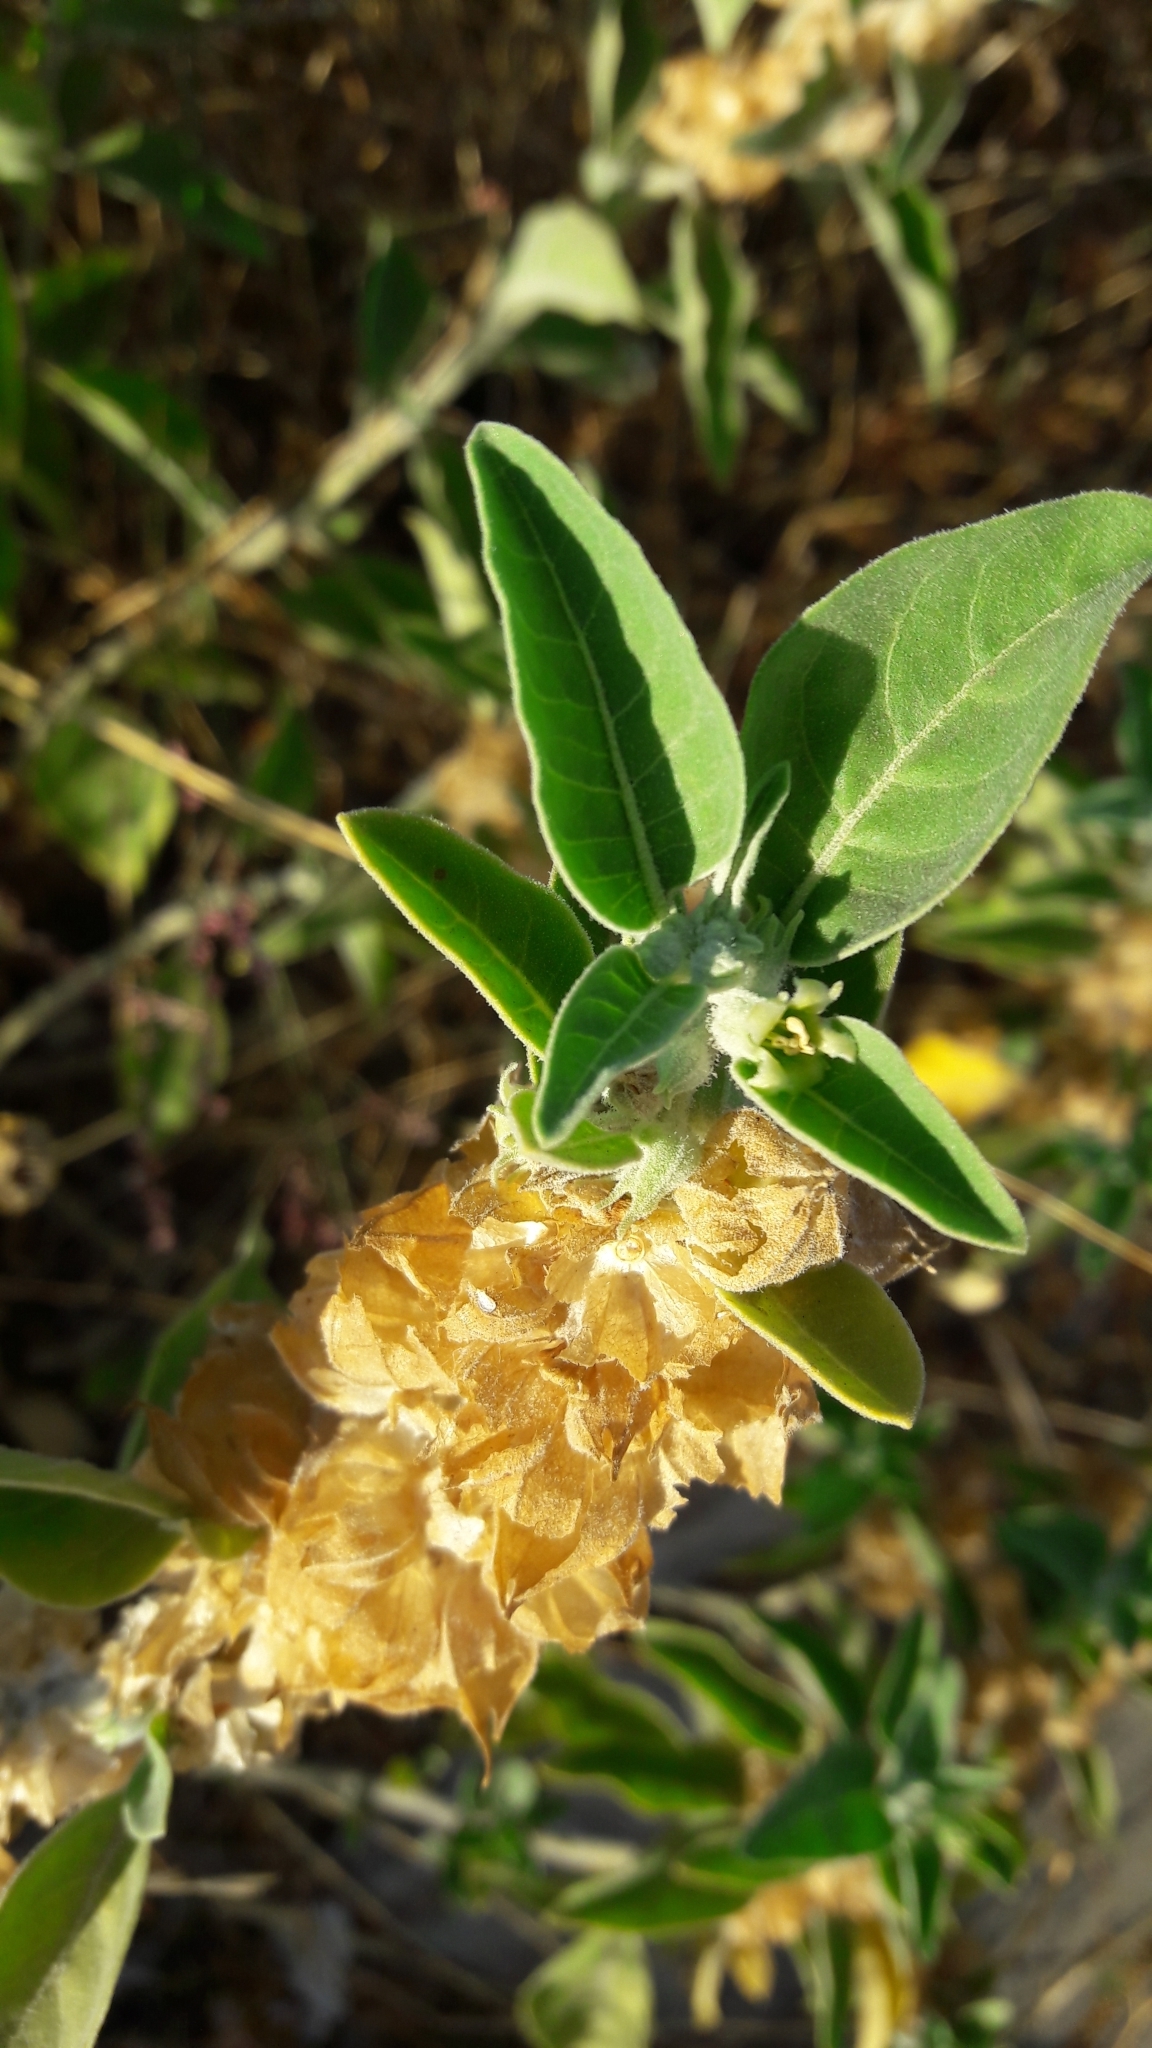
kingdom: Plantae
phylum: Tracheophyta
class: Magnoliopsida
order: Solanales
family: Solanaceae
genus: Withania
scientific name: Withania somnifera
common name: Winter-cherry
